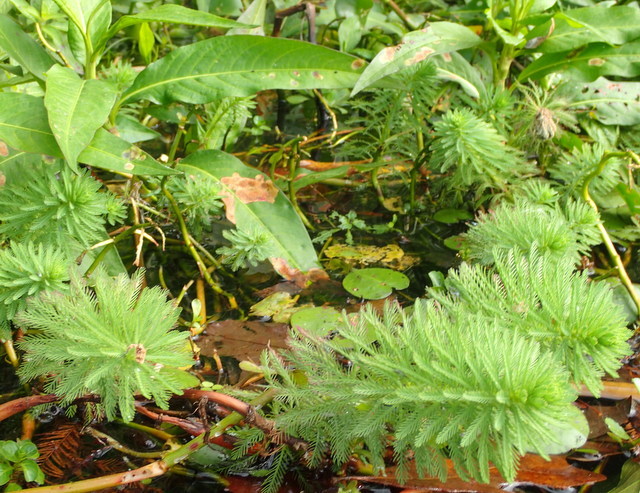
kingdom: Plantae
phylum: Tracheophyta
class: Magnoliopsida
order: Saxifragales
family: Haloragaceae
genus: Myriophyllum
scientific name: Myriophyllum aquaticum
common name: Parrot's feather
